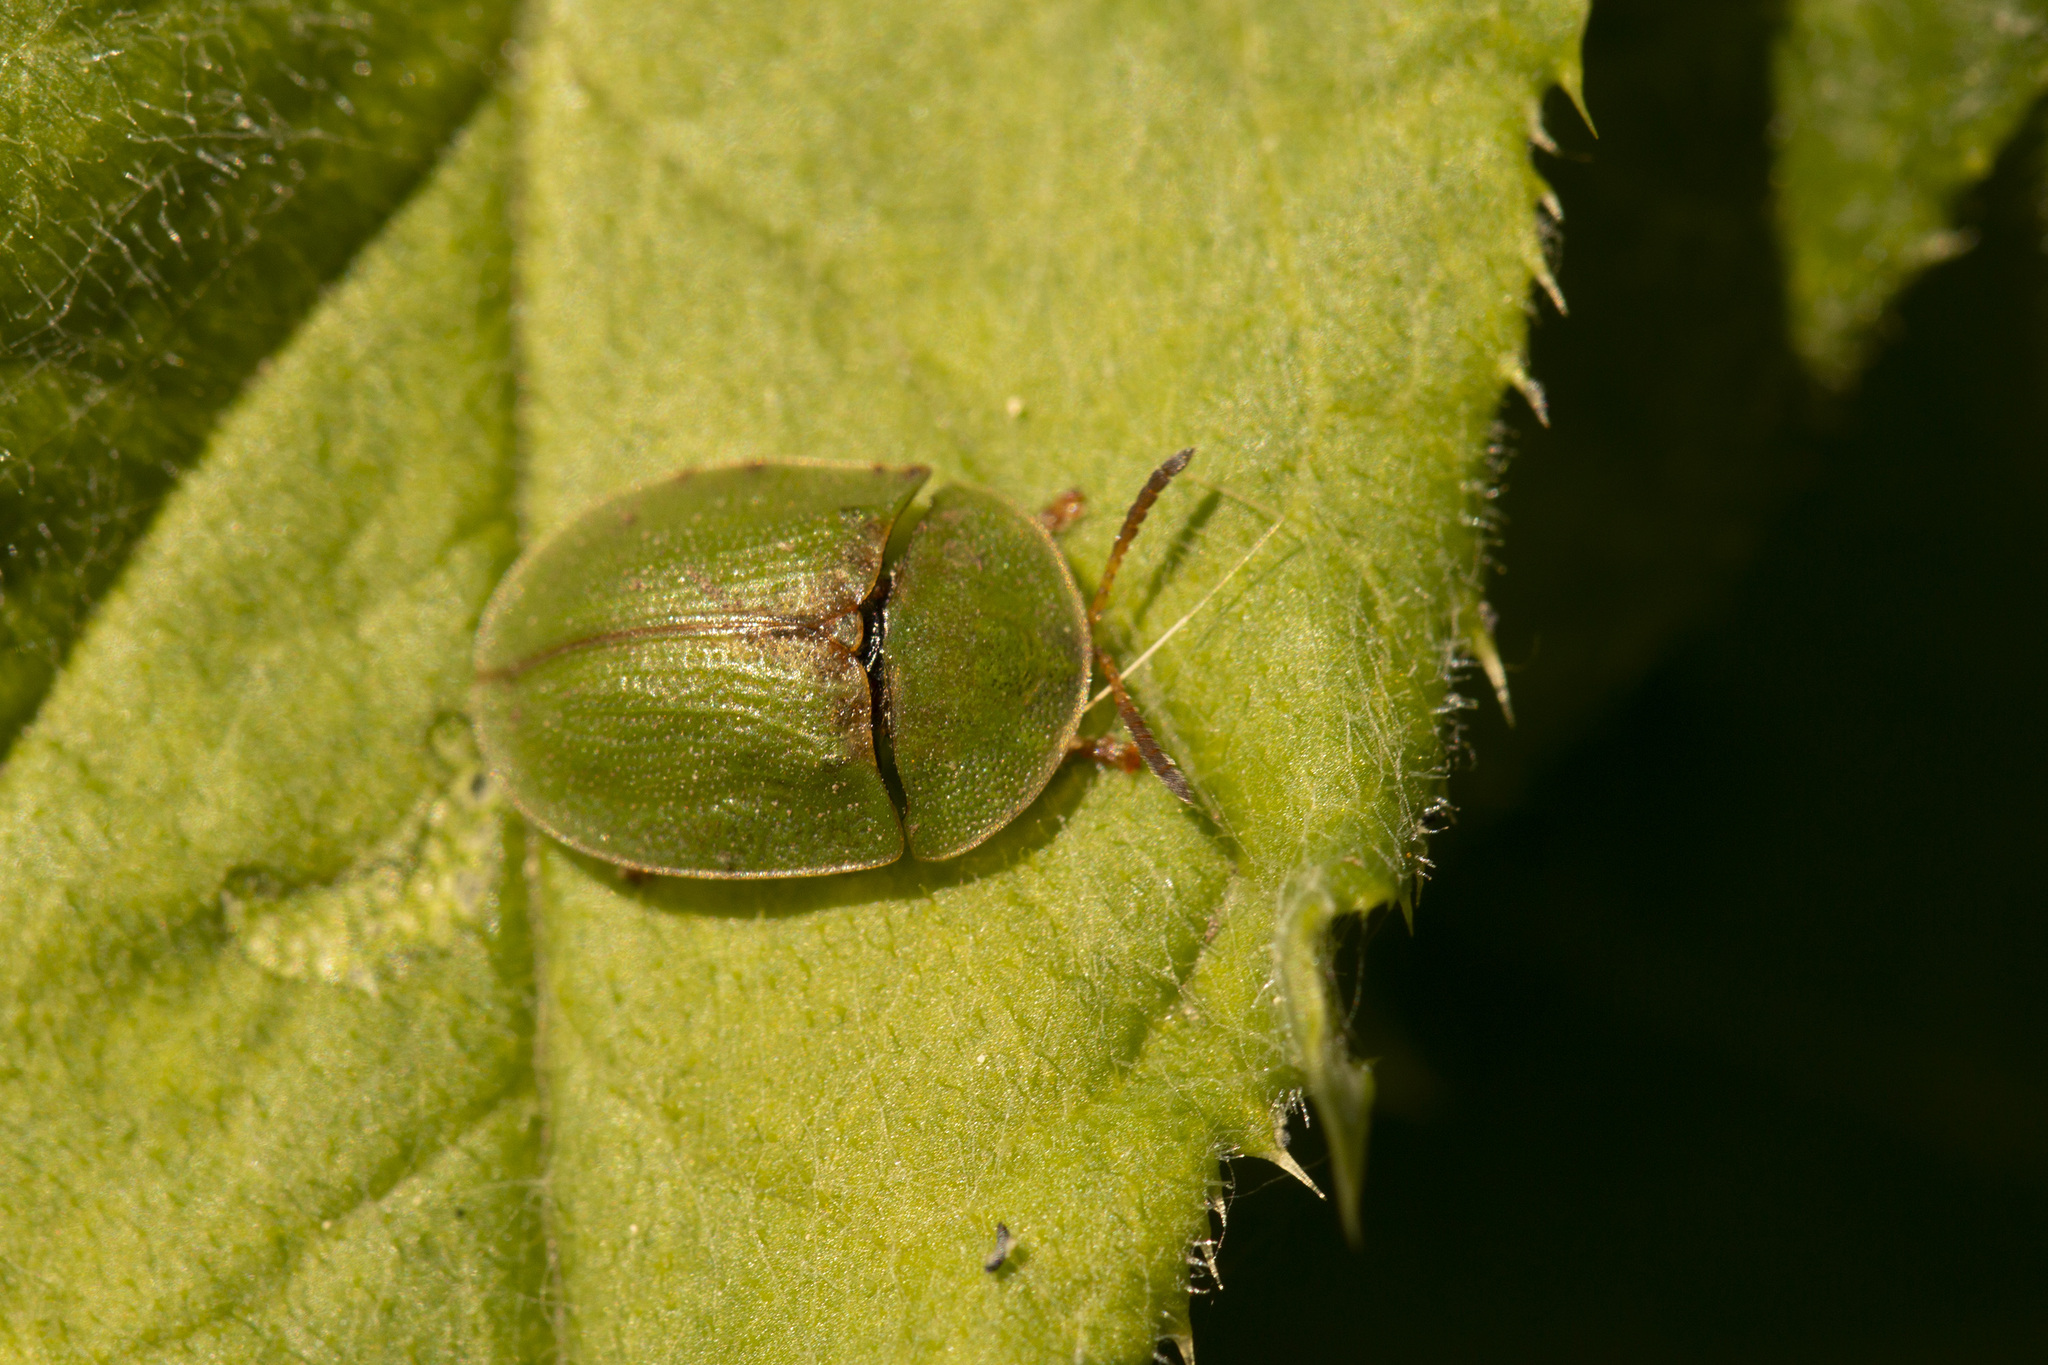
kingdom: Animalia
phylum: Arthropoda
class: Insecta
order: Coleoptera
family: Chrysomelidae
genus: Cassida
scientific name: Cassida rubiginosa
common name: Thistle tortoise beetle
